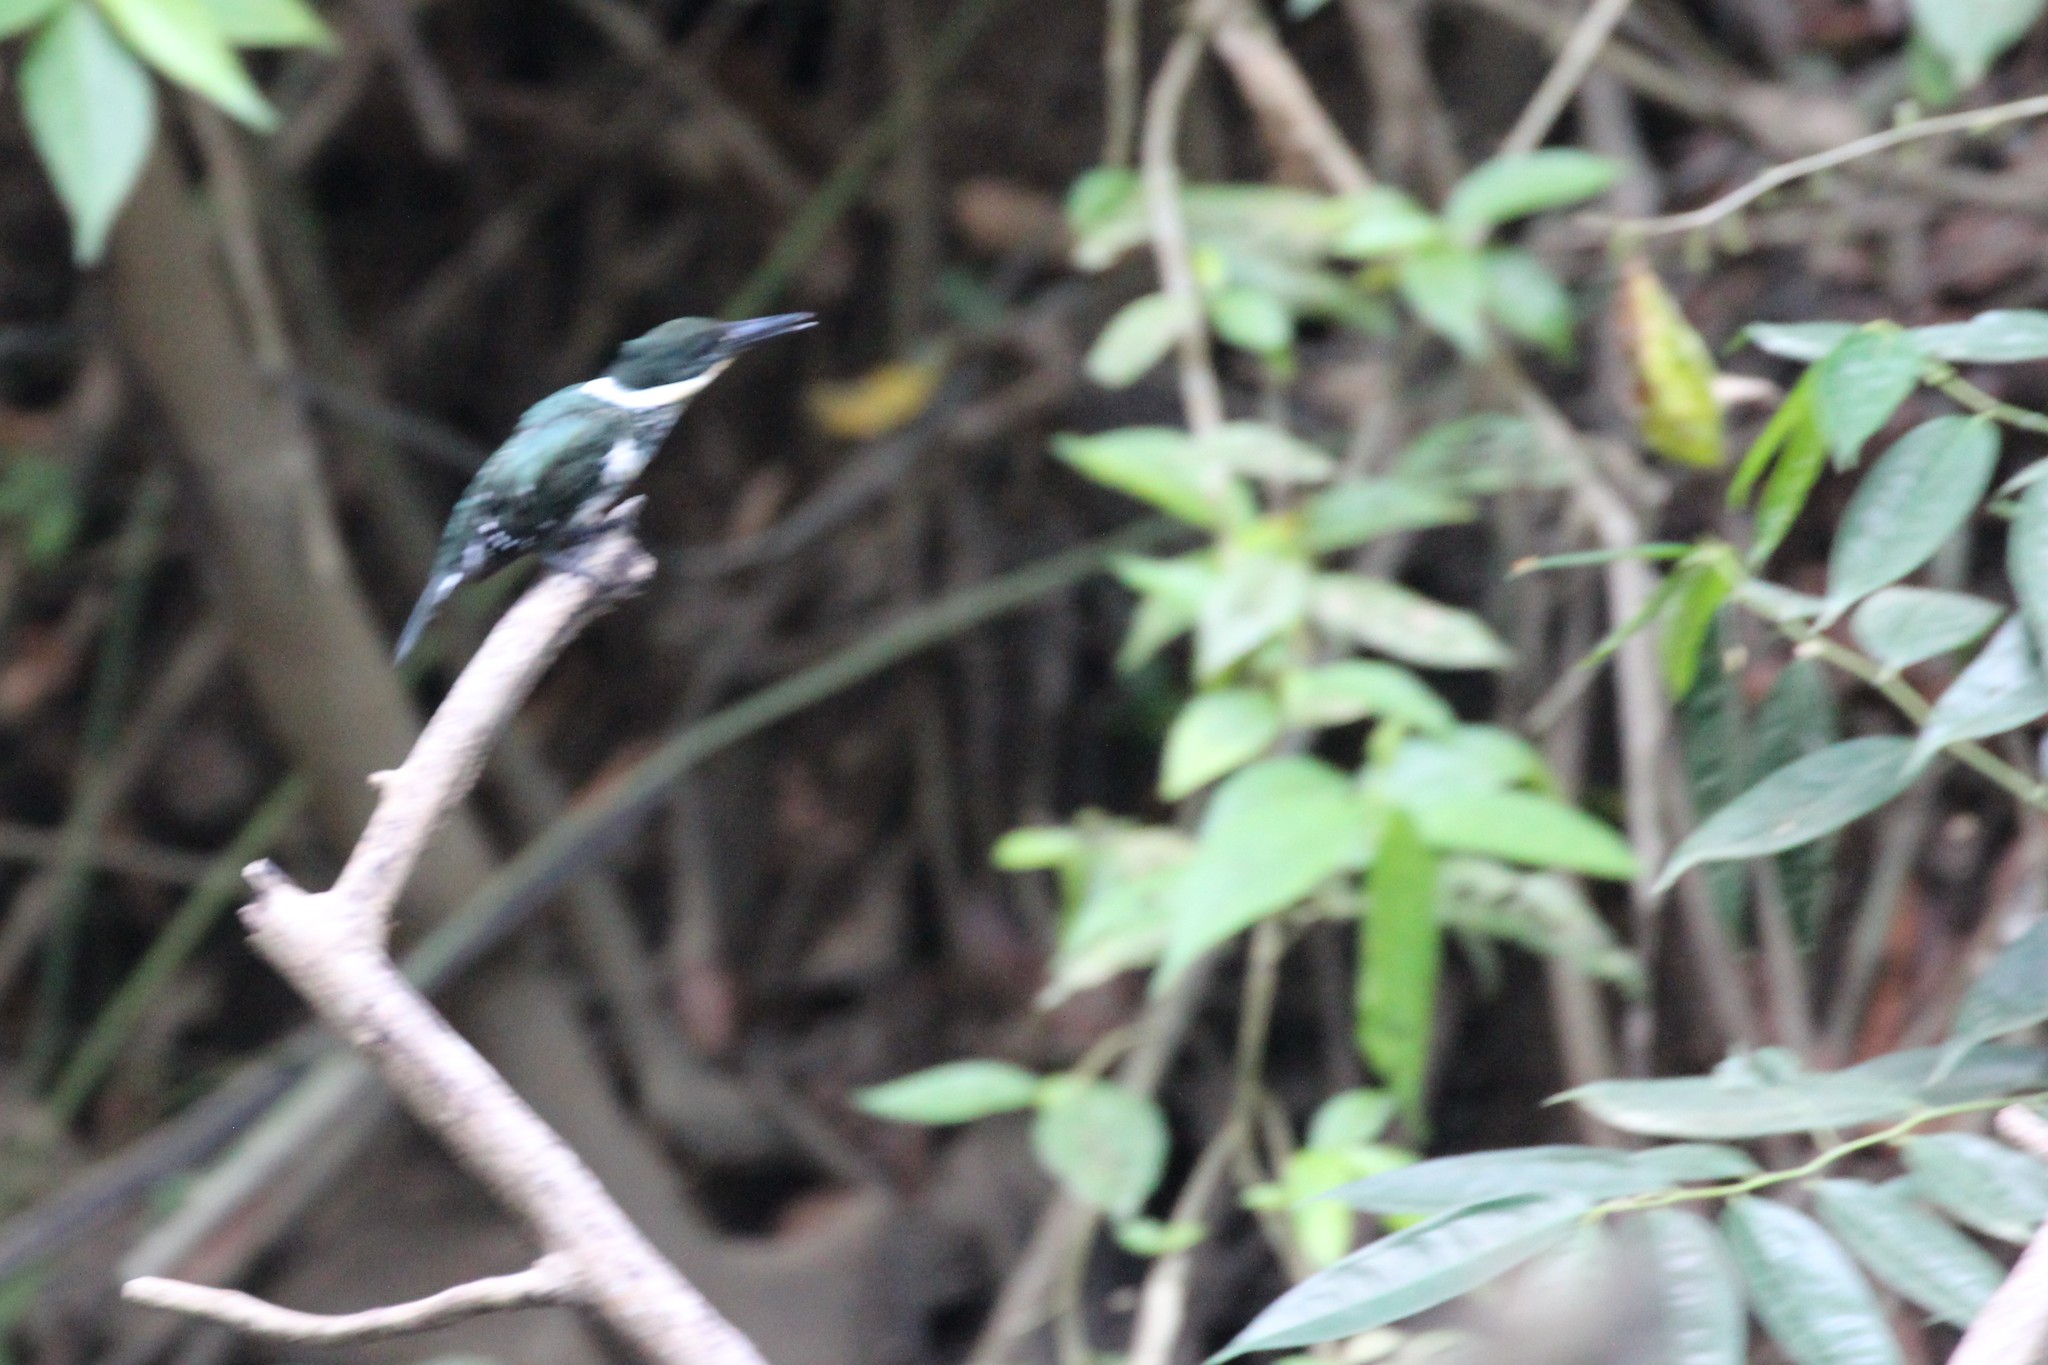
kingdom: Animalia
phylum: Chordata
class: Aves
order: Coraciiformes
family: Alcedinidae
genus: Chloroceryle
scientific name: Chloroceryle americana
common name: Green kingfisher
